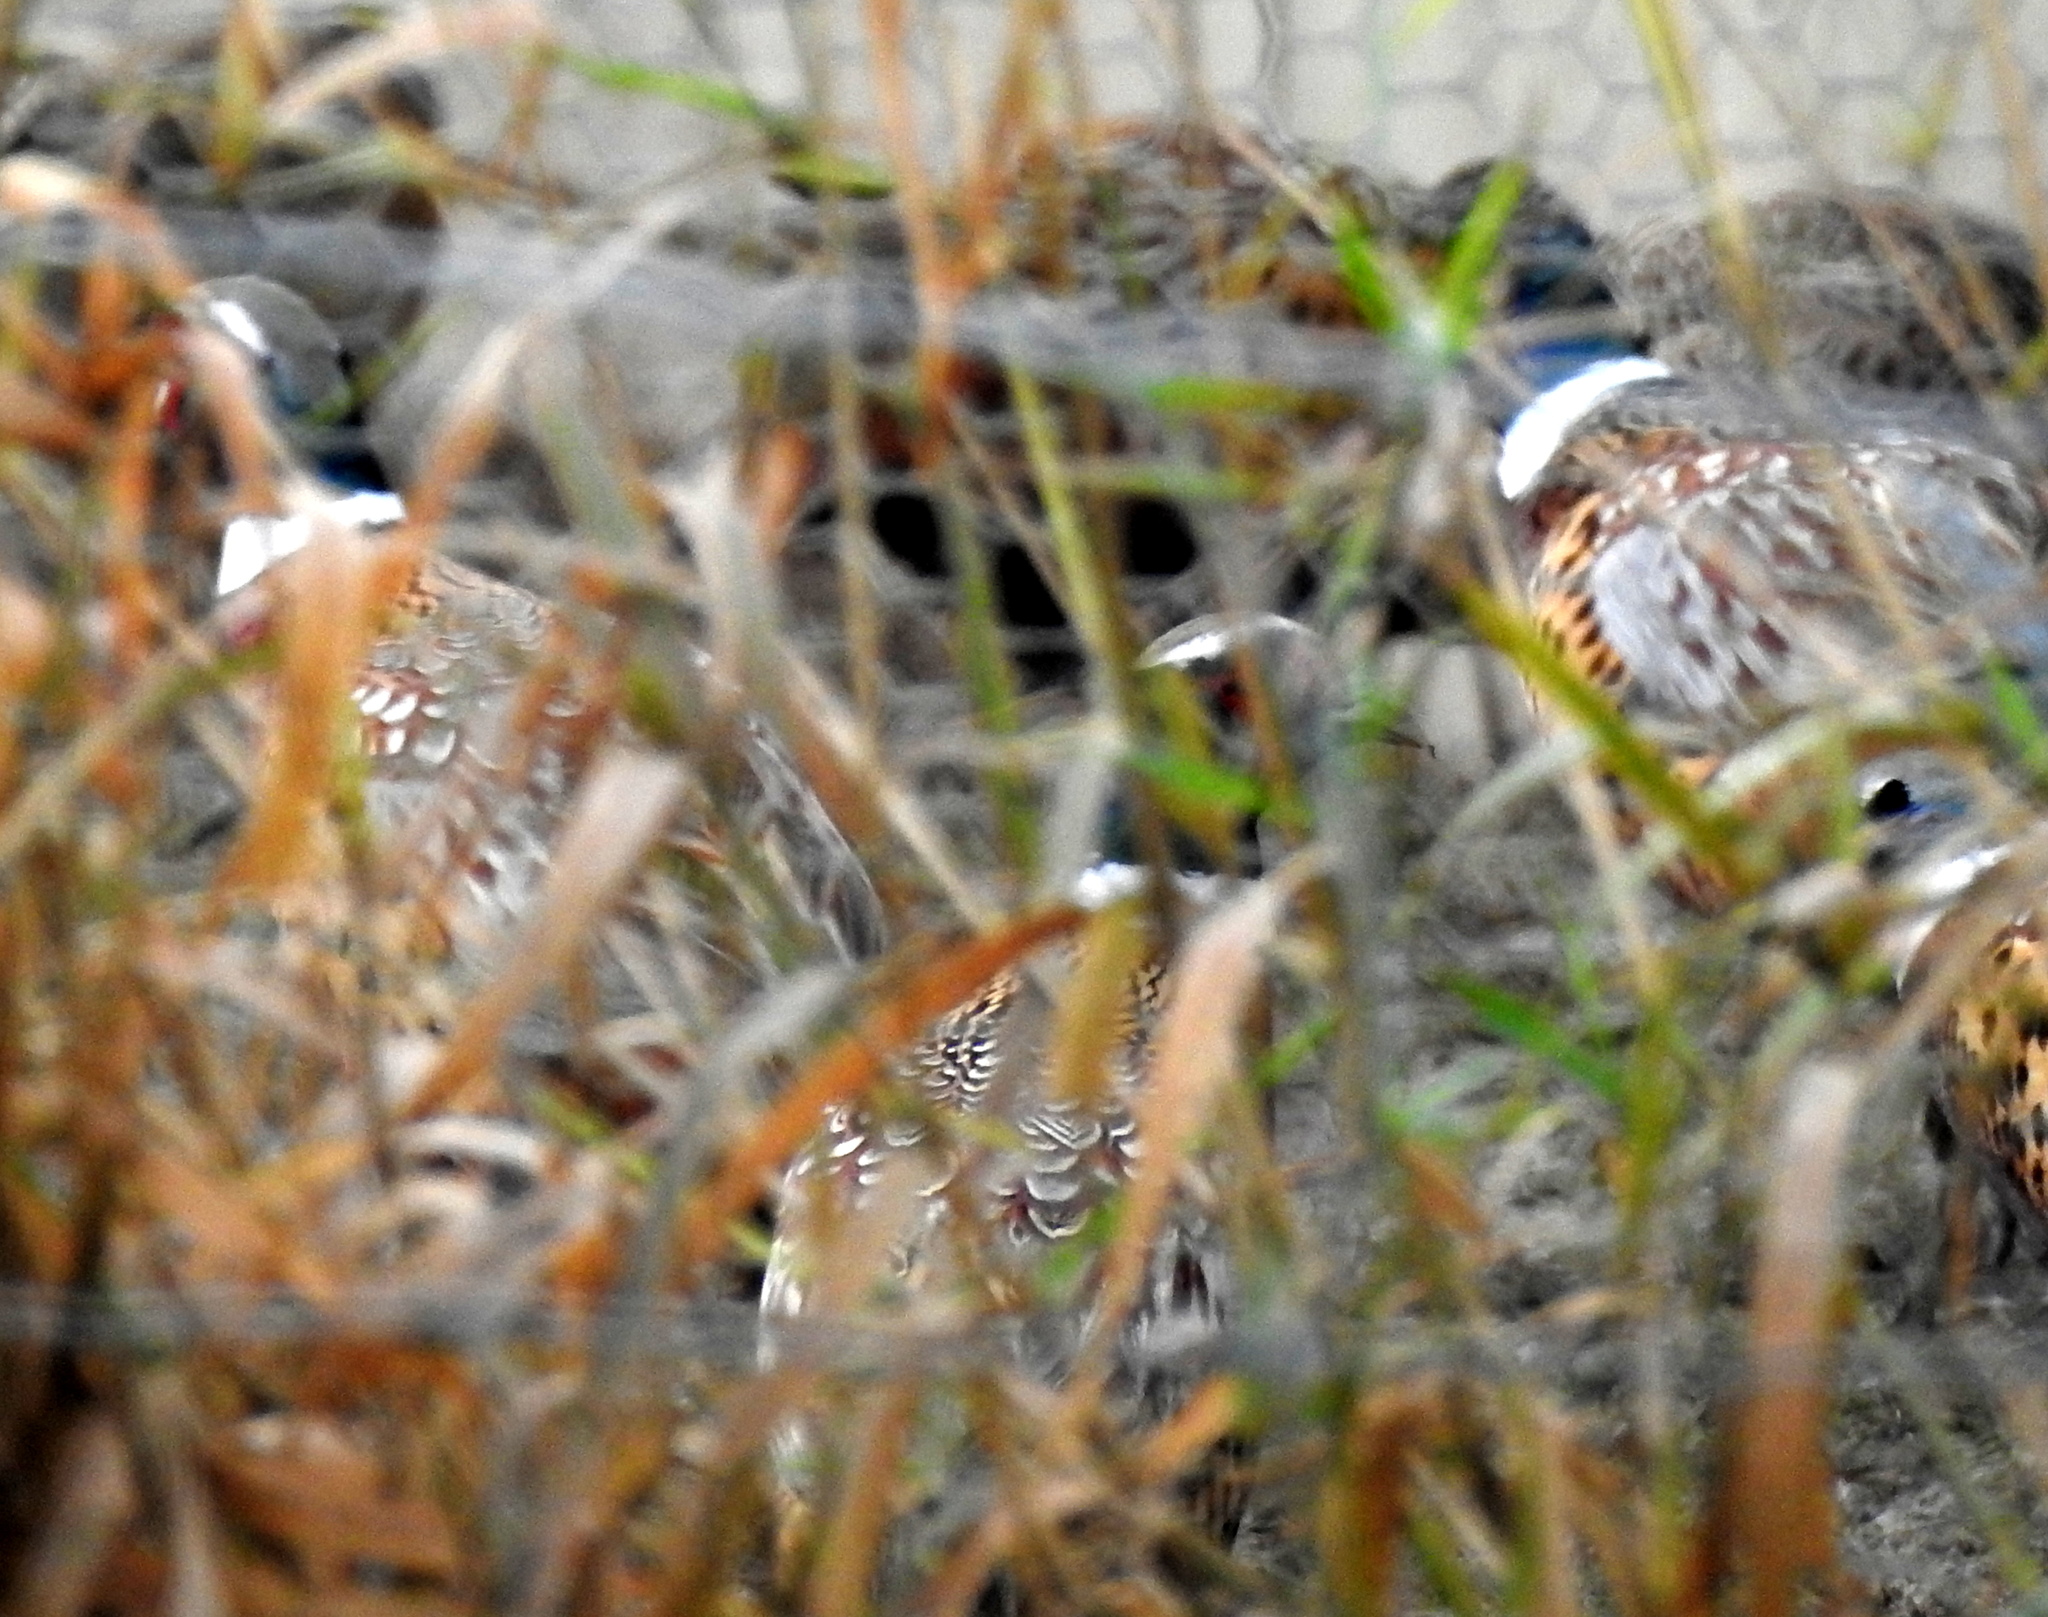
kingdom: Animalia
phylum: Chordata
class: Aves
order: Galliformes
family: Phasianidae
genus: Phasianus
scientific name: Phasianus colchicus
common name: Common pheasant
